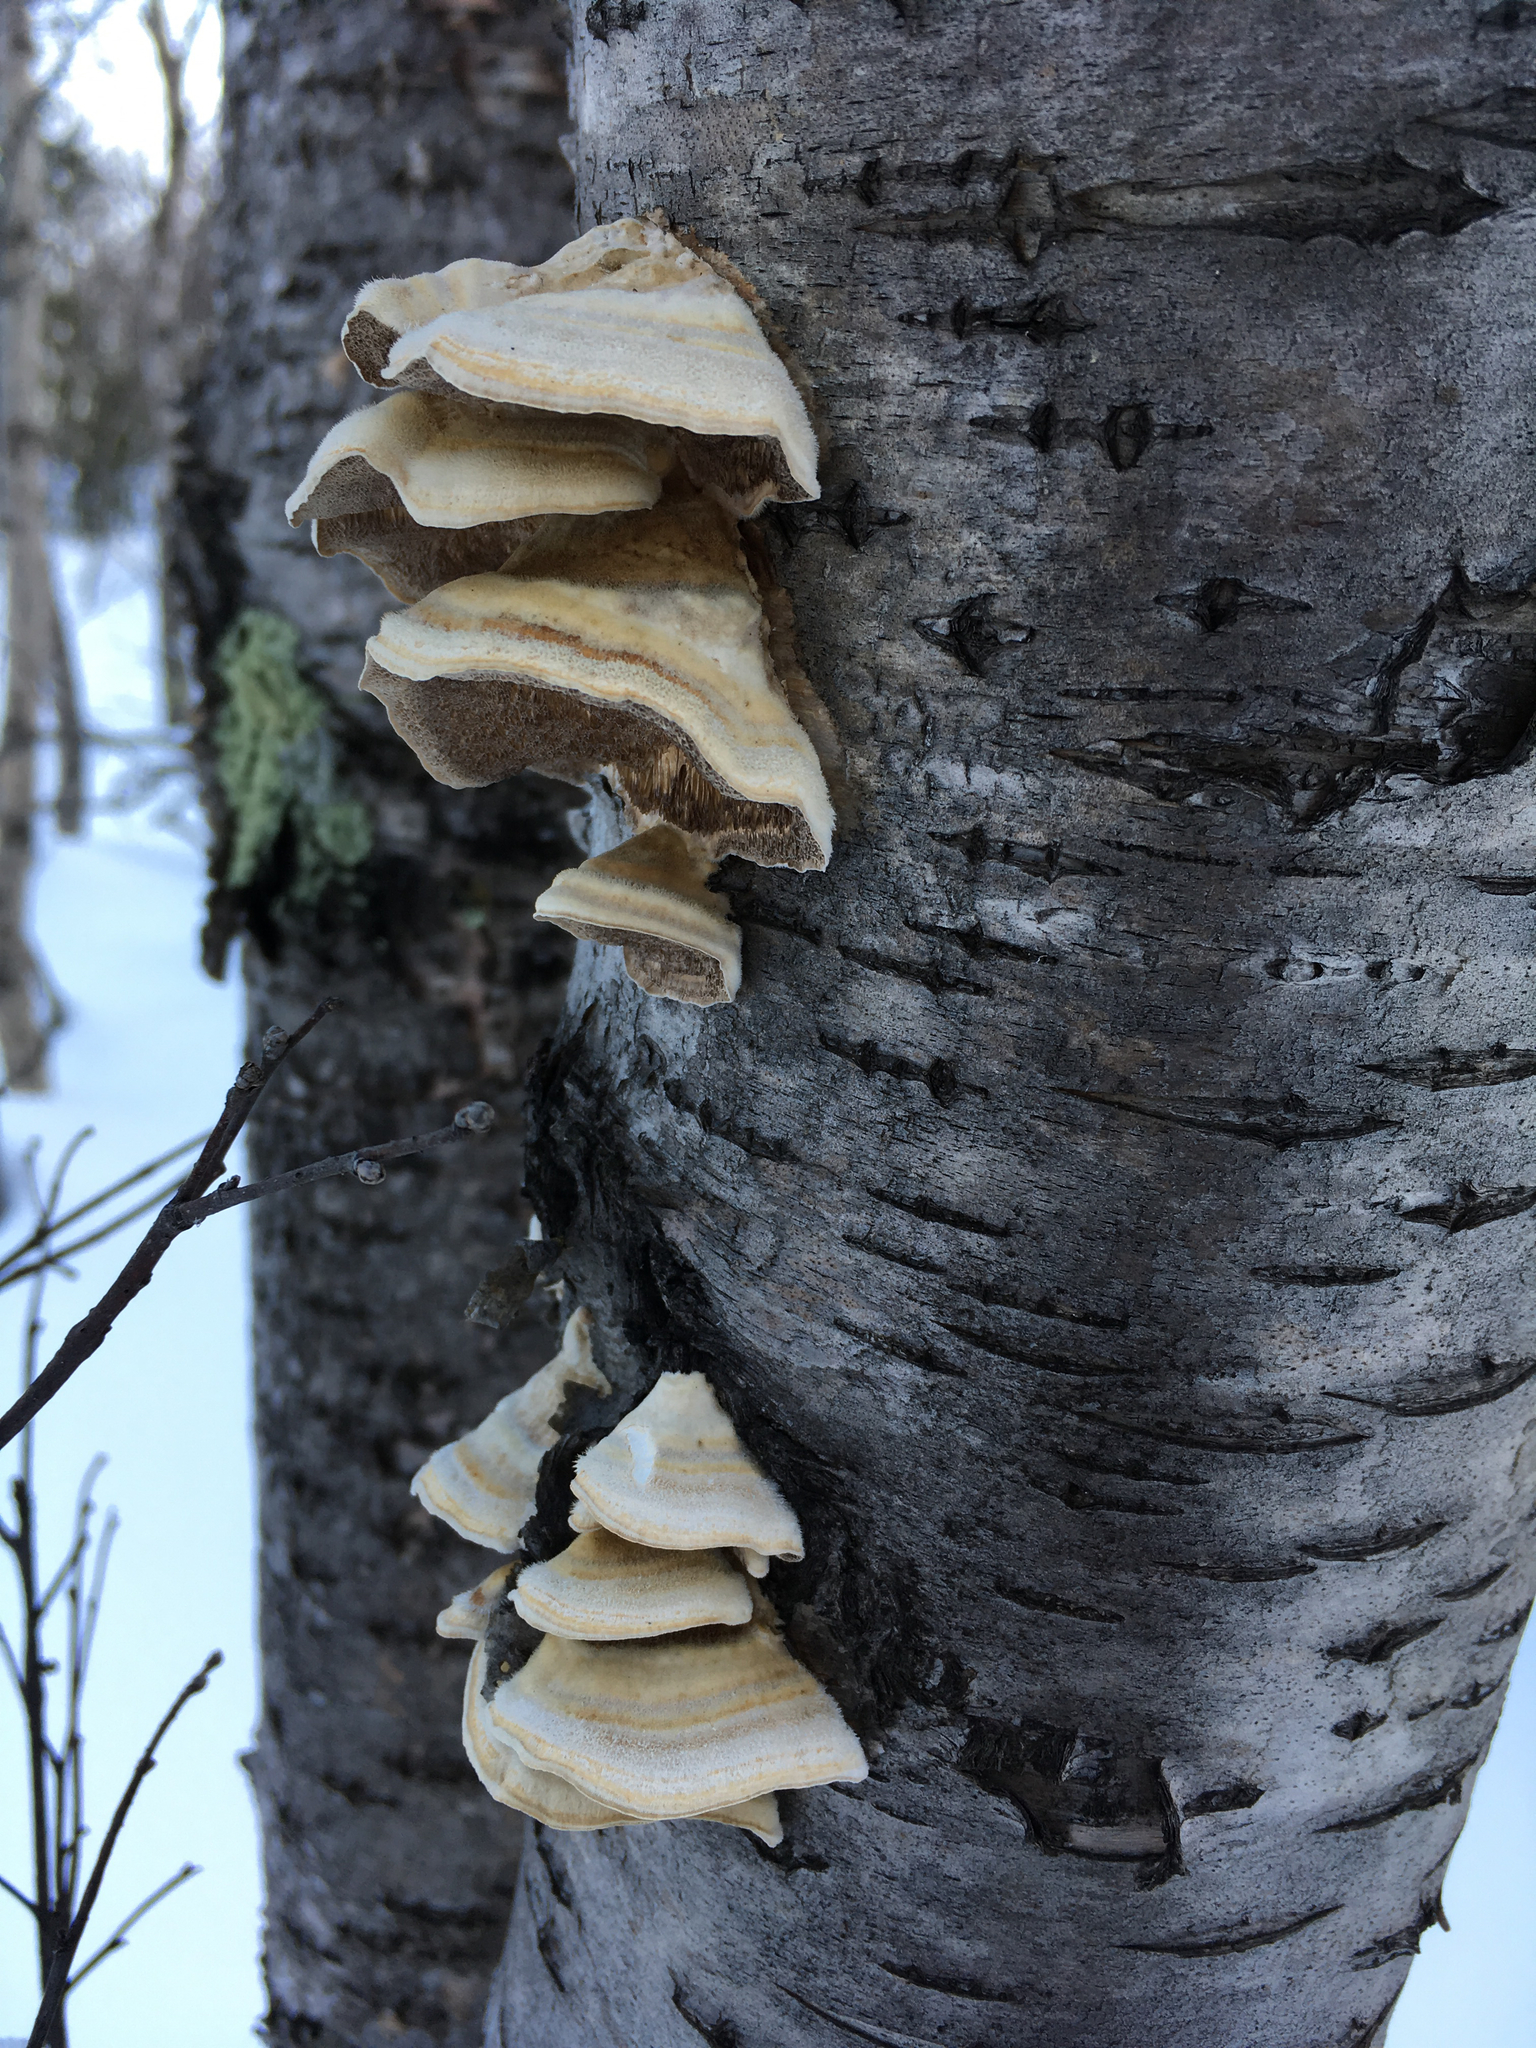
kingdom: Fungi
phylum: Basidiomycota
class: Agaricomycetes
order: Polyporales
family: Polyporaceae
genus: Trametes
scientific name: Trametes pubescens
